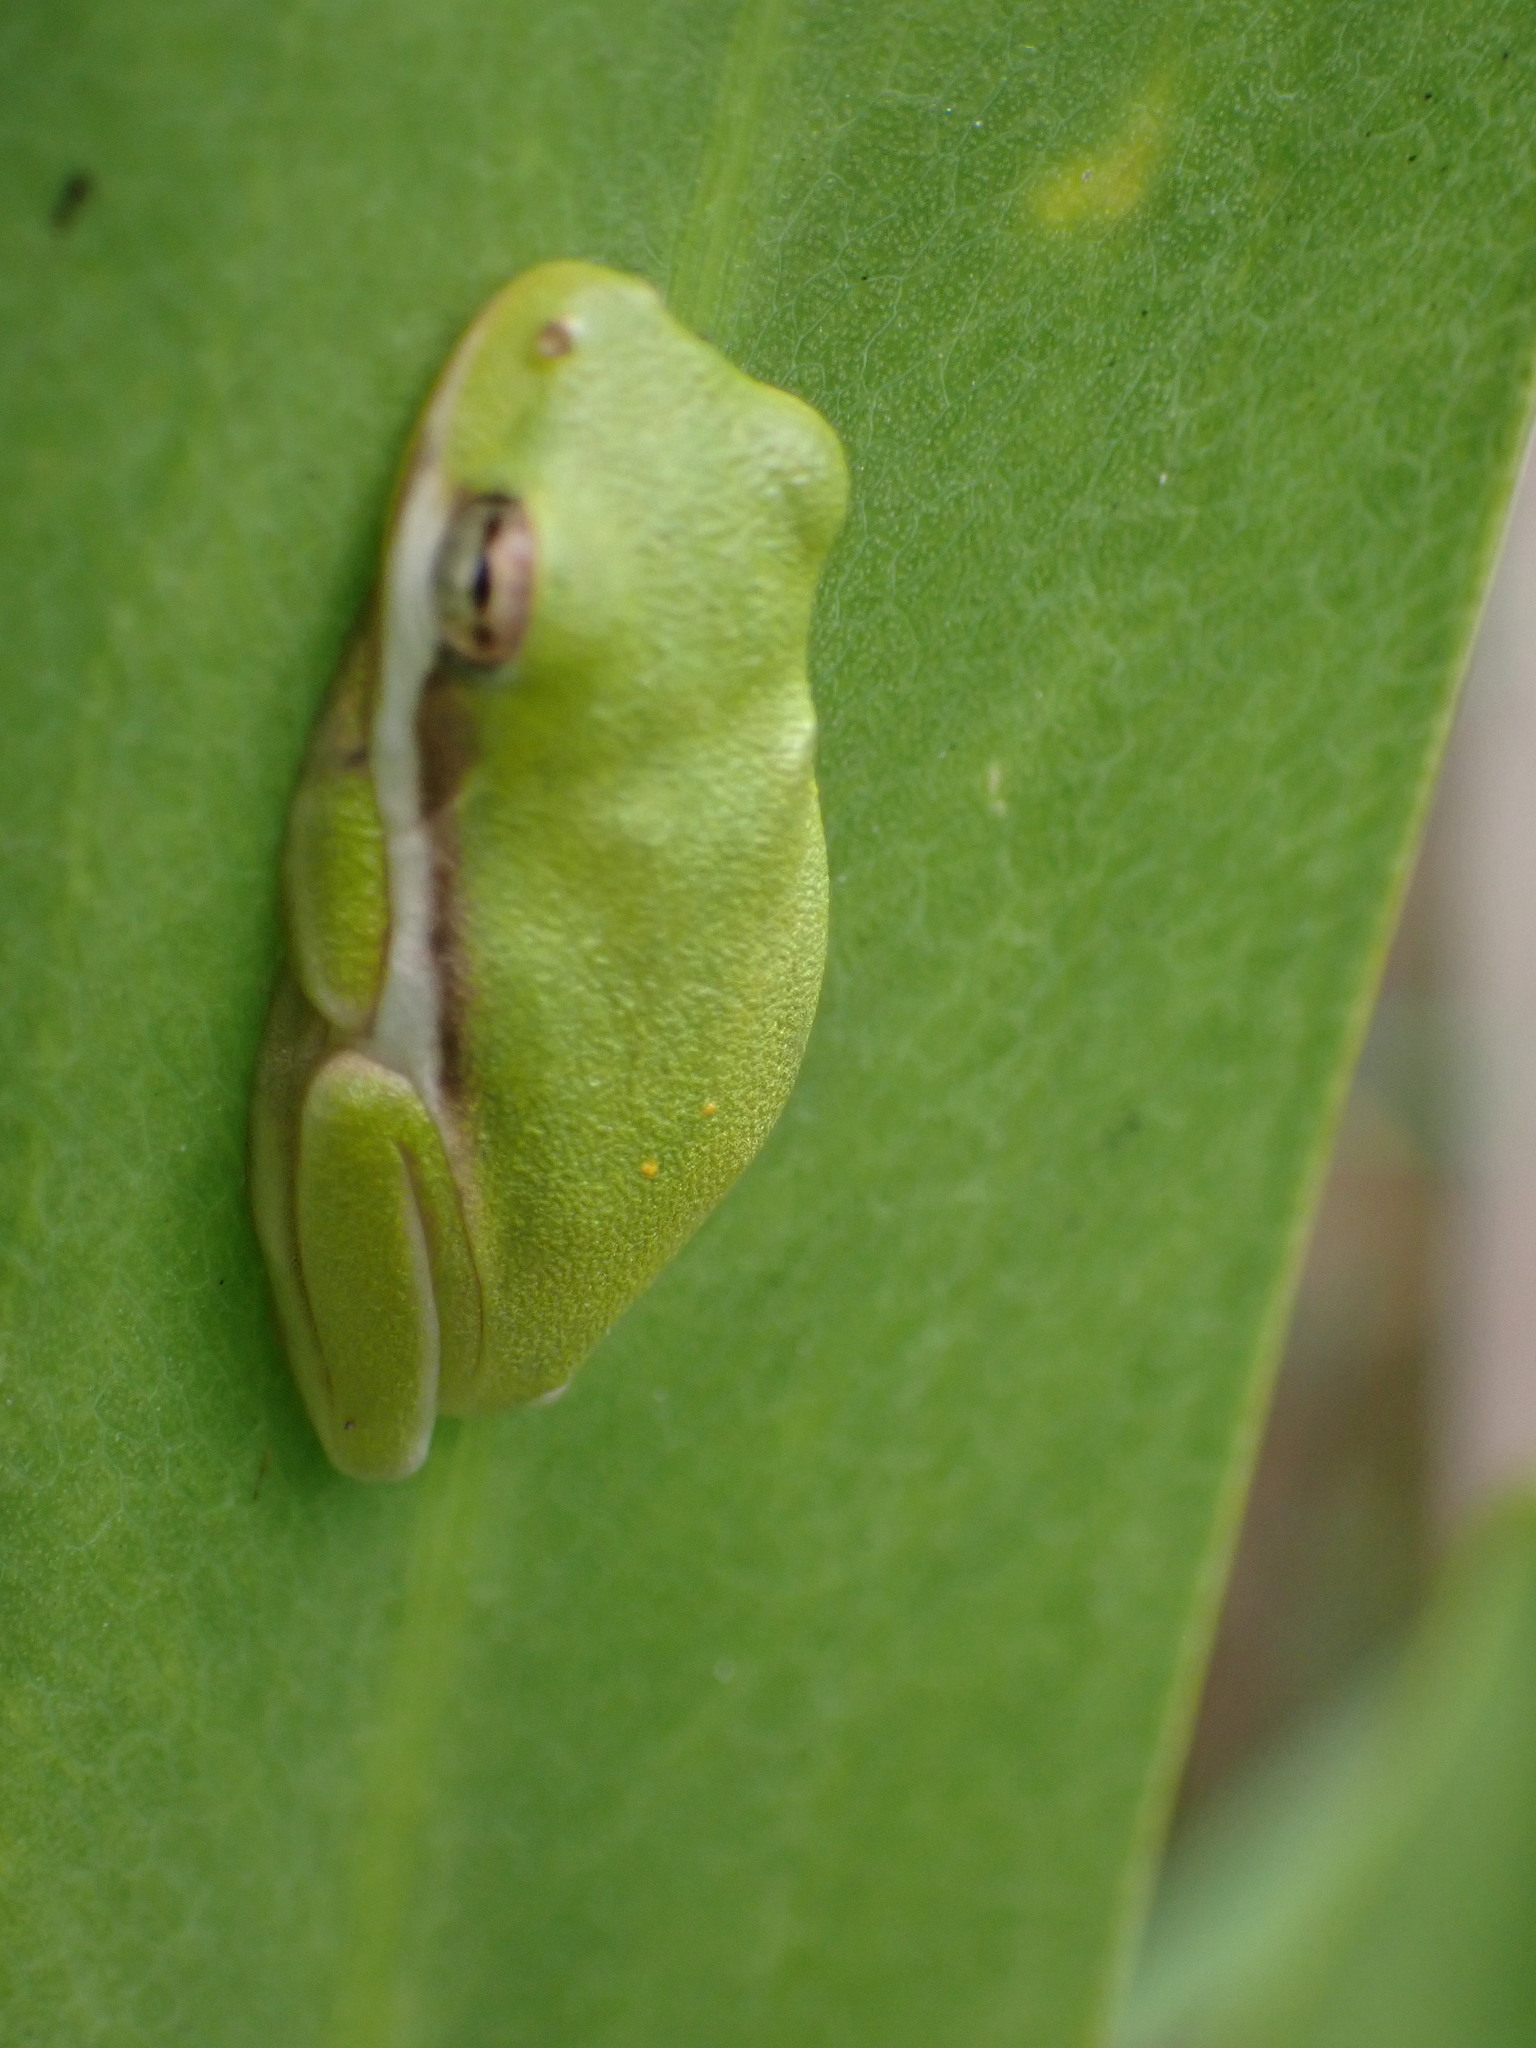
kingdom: Animalia
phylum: Chordata
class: Amphibia
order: Anura
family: Hylidae
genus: Dryophytes
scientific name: Dryophytes cinereus
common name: Green treefrog
